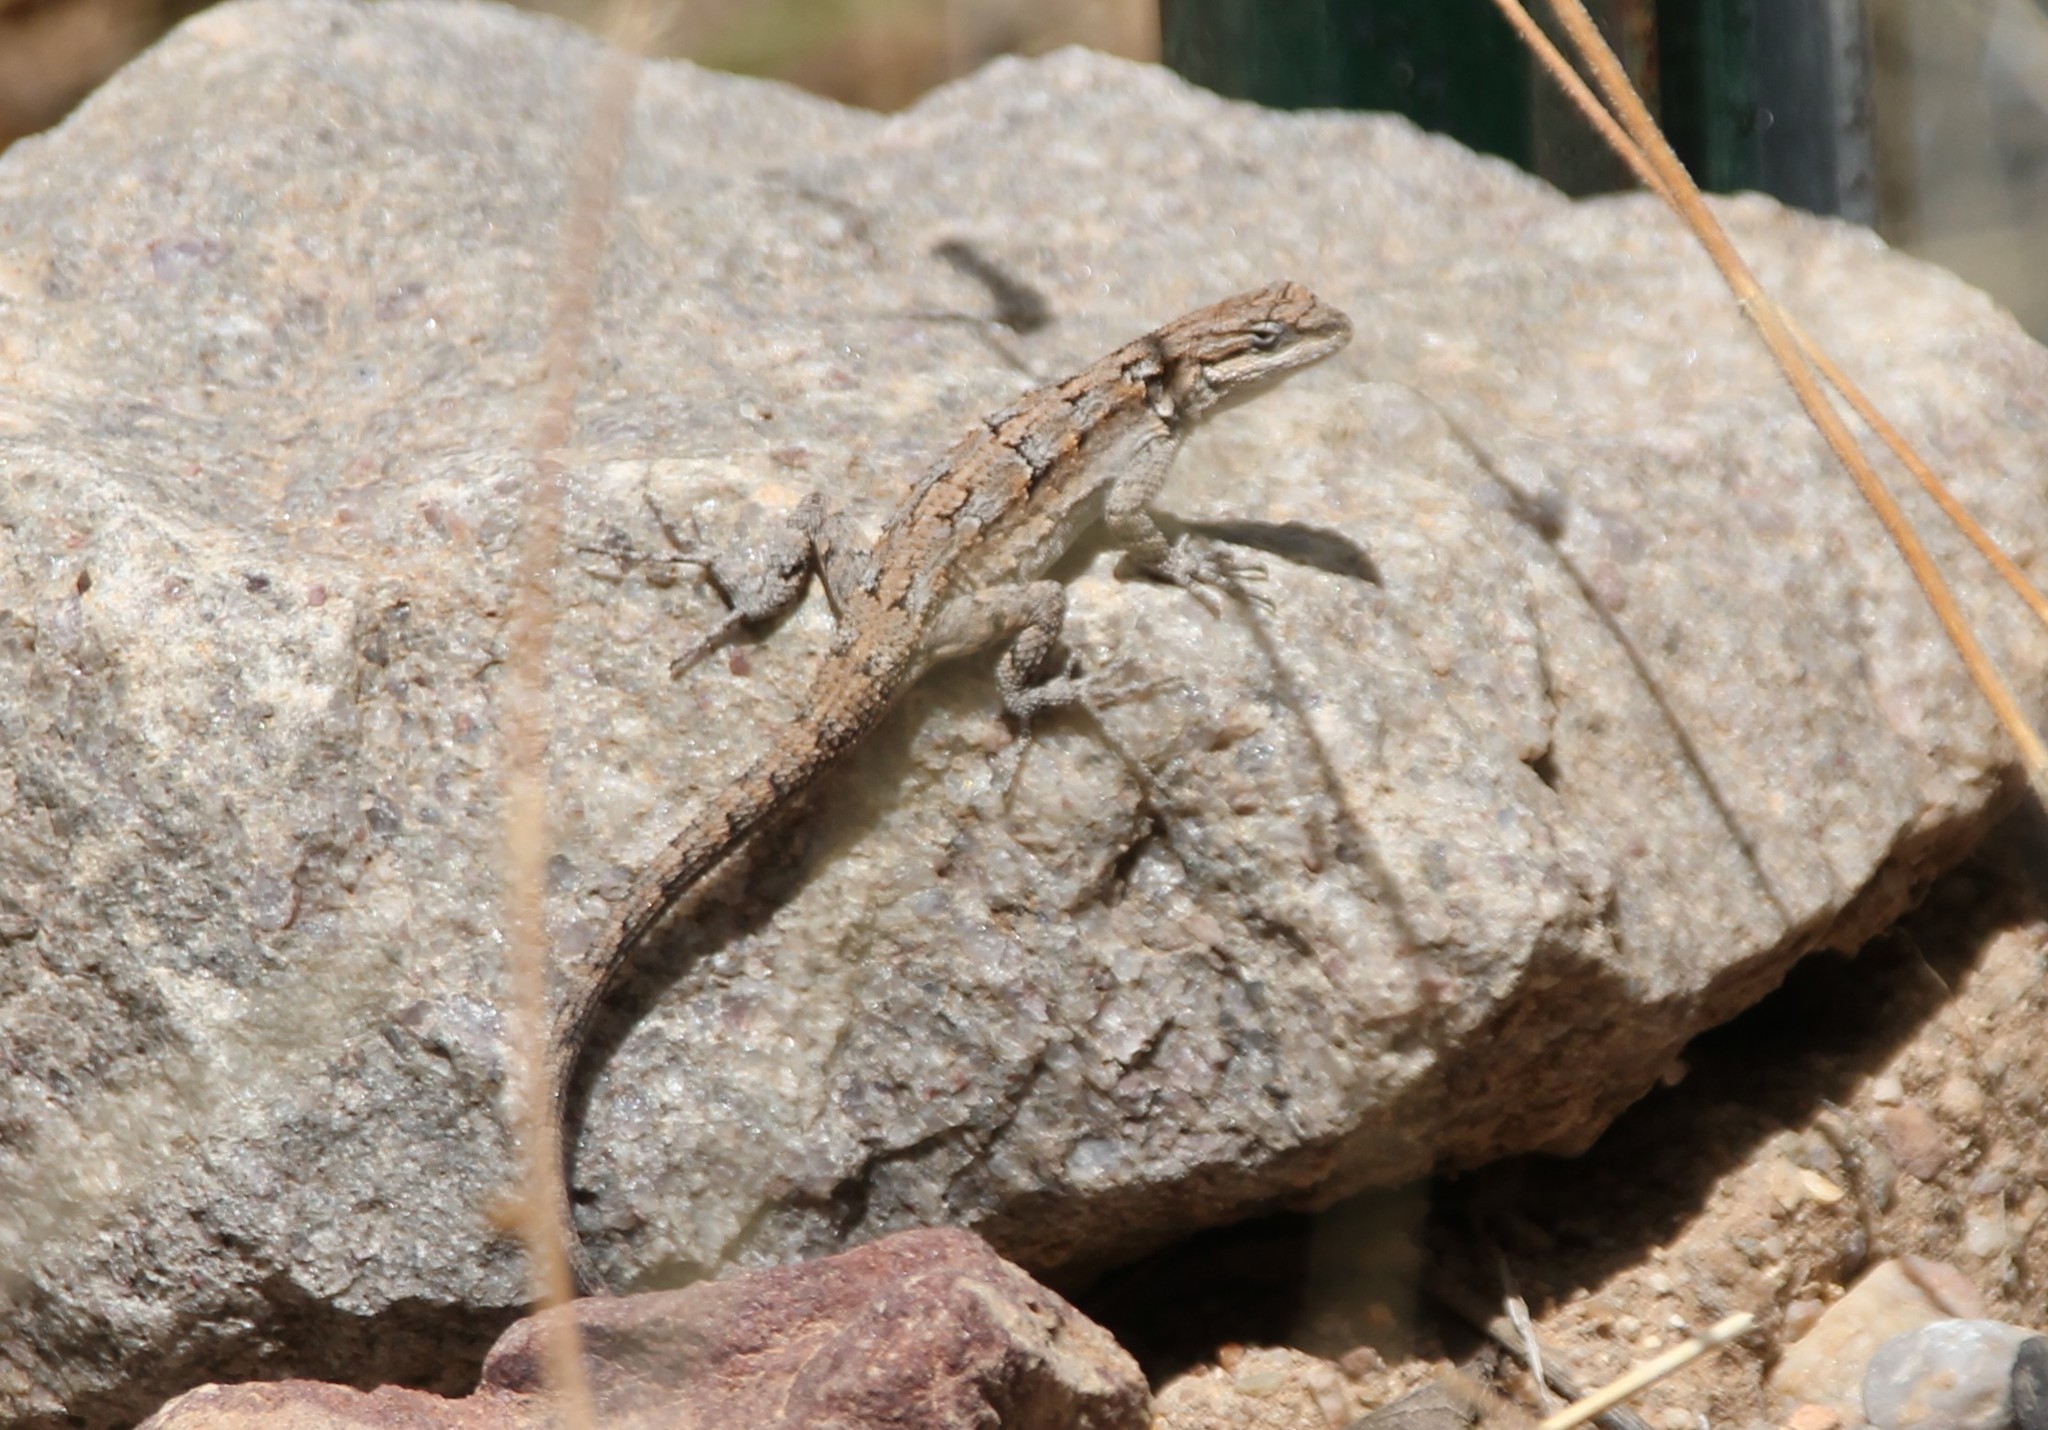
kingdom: Animalia
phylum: Chordata
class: Squamata
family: Phrynosomatidae
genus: Urosaurus
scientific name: Urosaurus ornatus
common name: Ornate tree lizard
